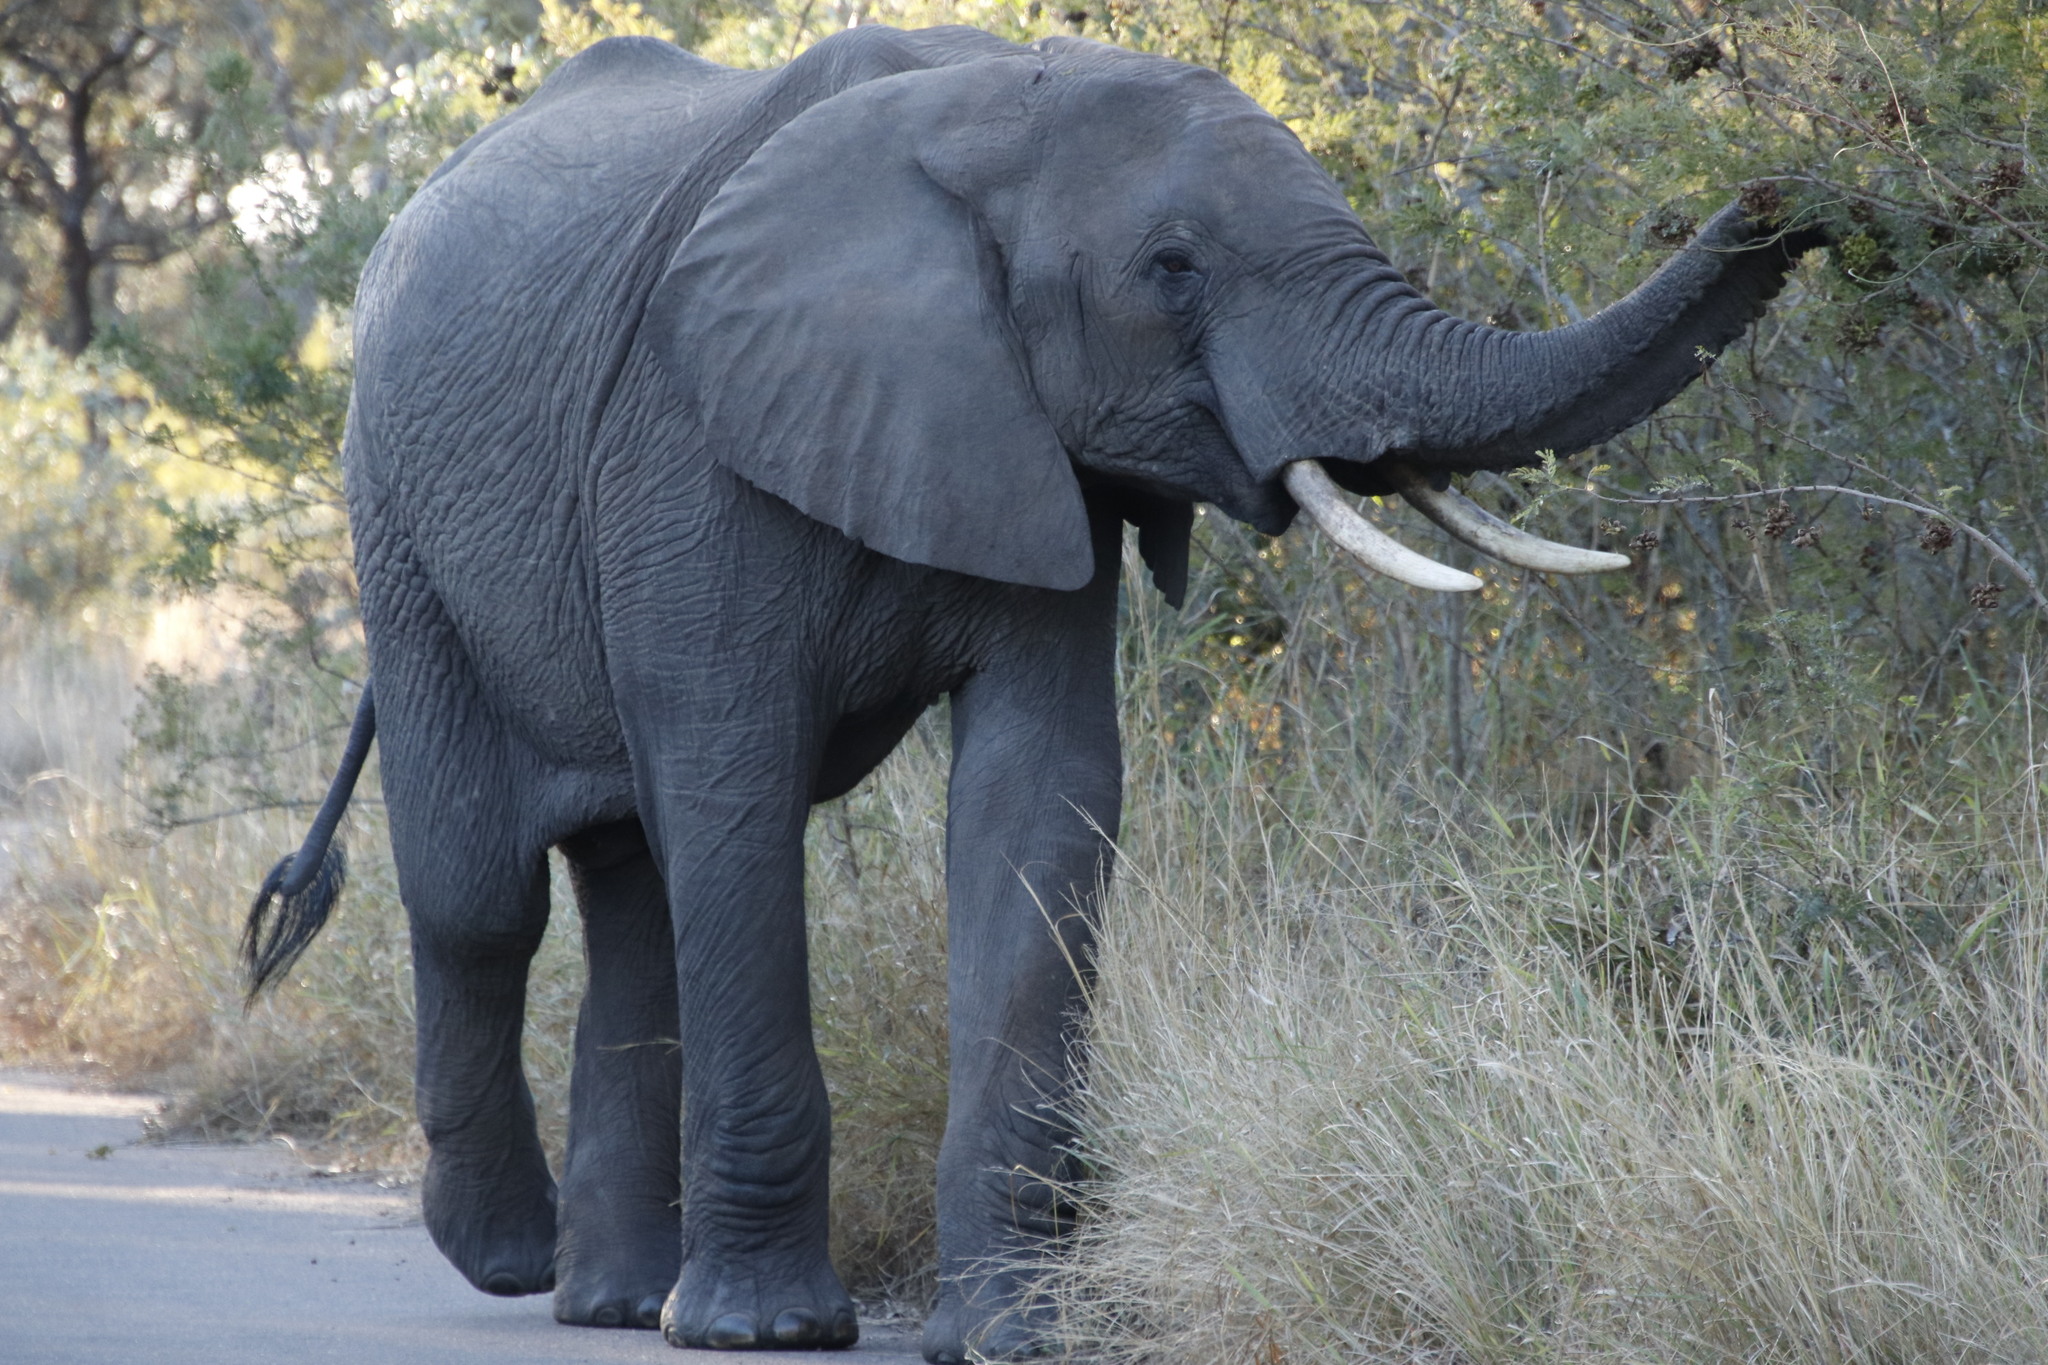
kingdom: Animalia
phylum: Chordata
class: Mammalia
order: Proboscidea
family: Elephantidae
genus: Loxodonta
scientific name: Loxodonta africana
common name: African elephant
